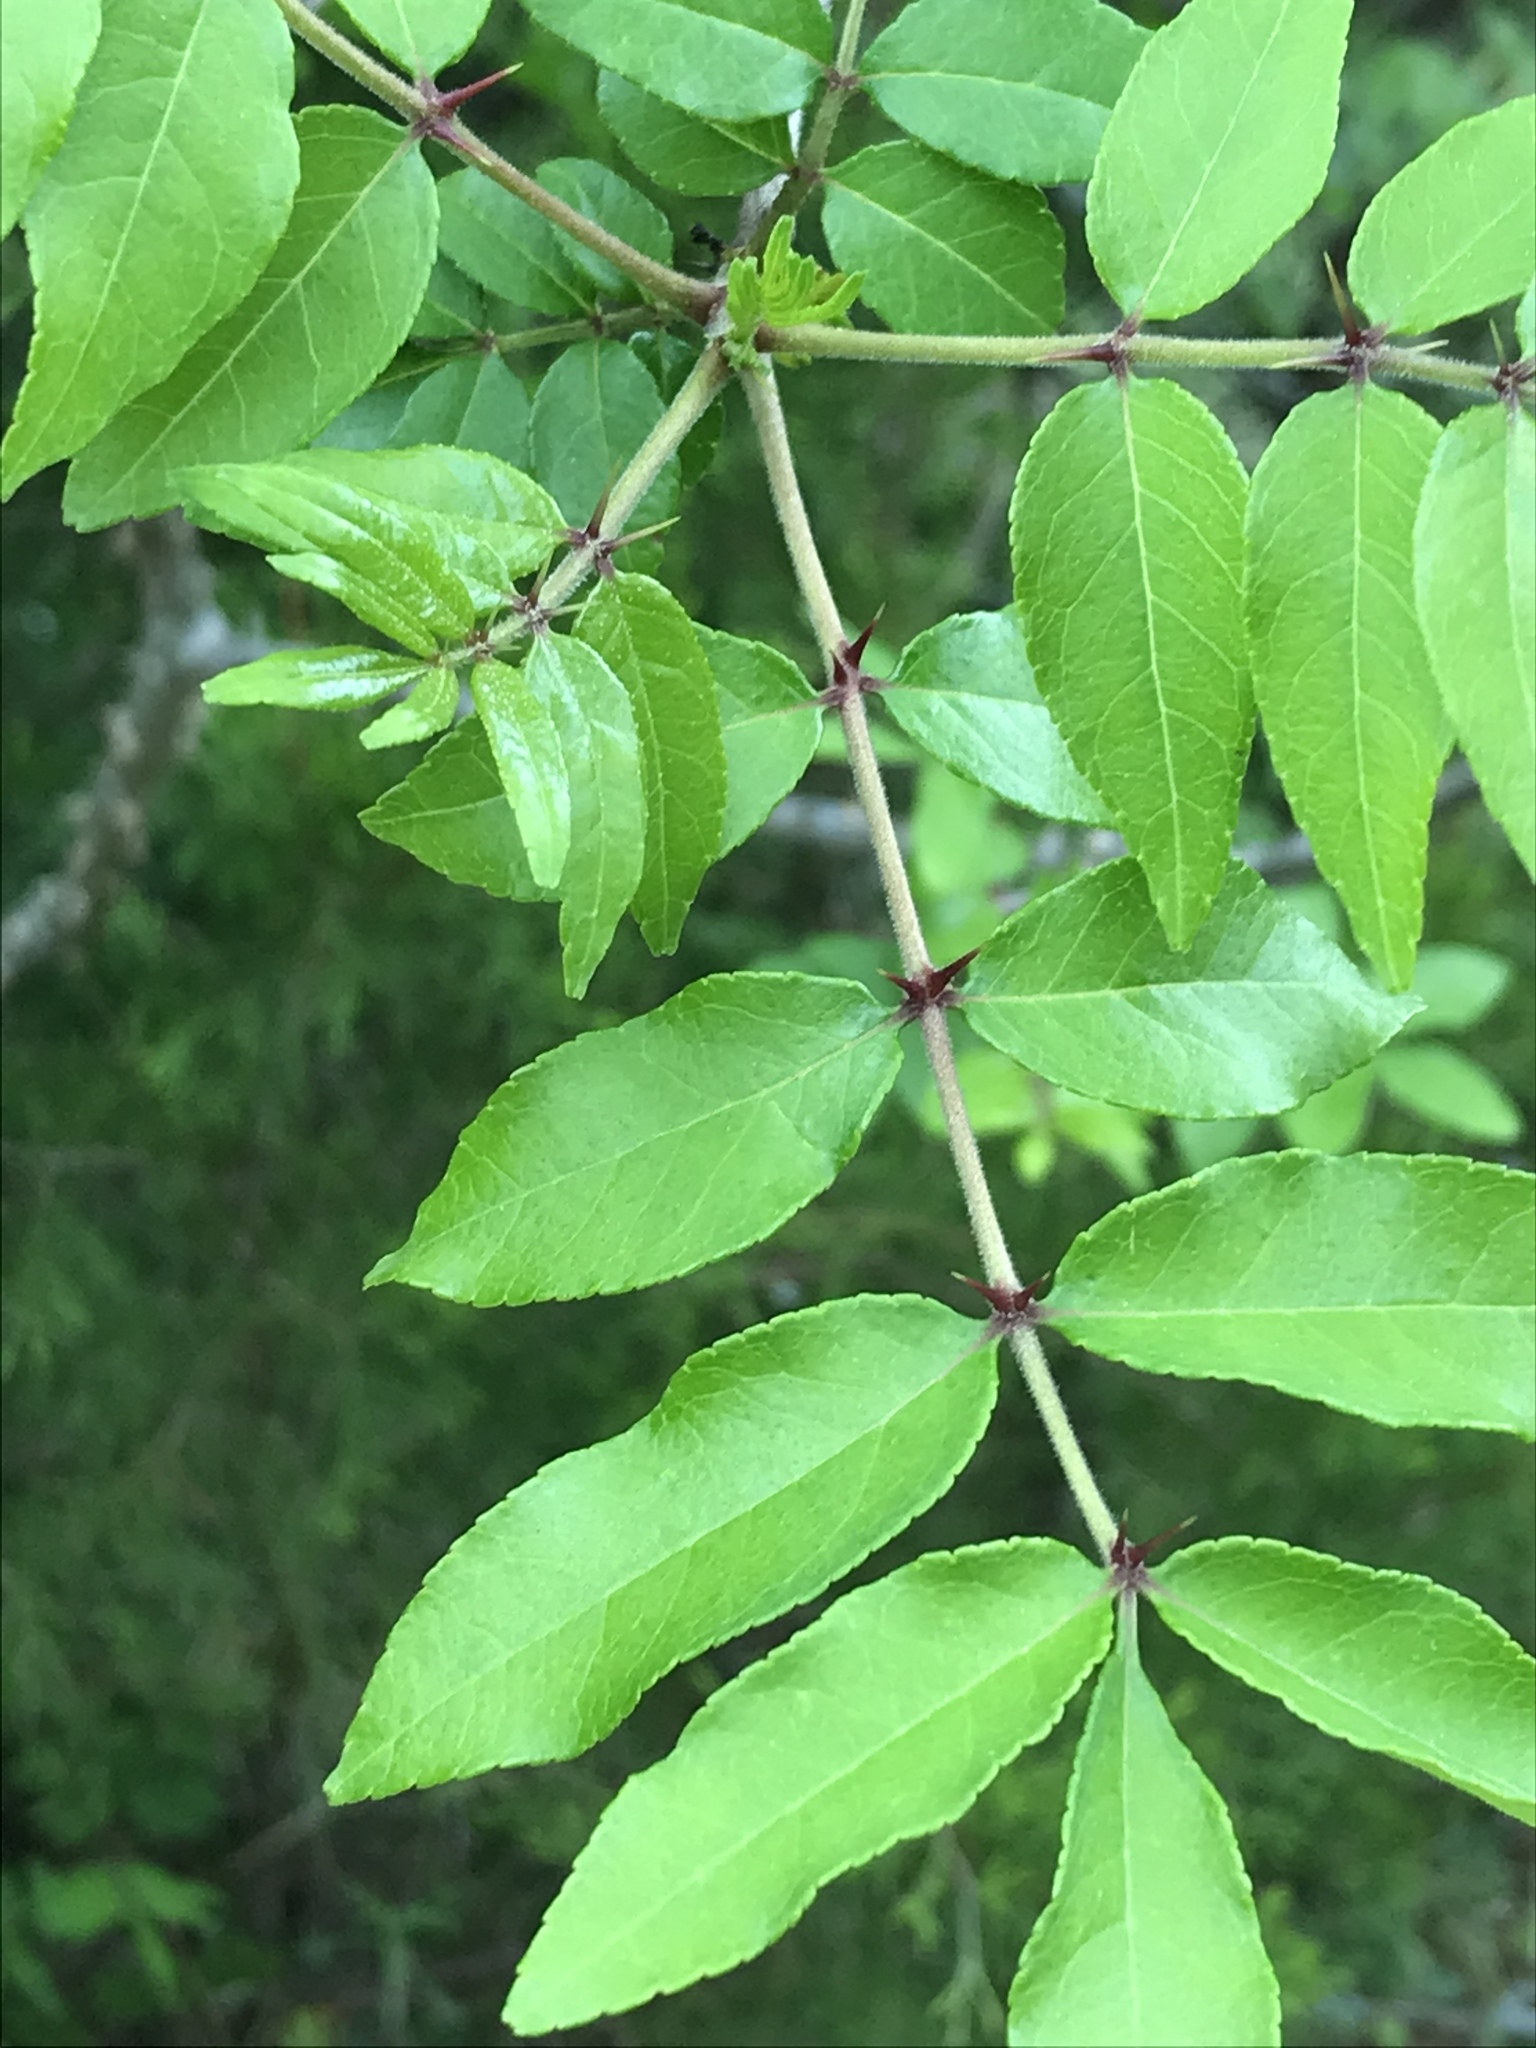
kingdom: Plantae
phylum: Tracheophyta
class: Magnoliopsida
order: Sapindales
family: Rutaceae
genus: Zanthoxylum
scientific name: Zanthoxylum clava-herculis
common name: Hercules'-club
